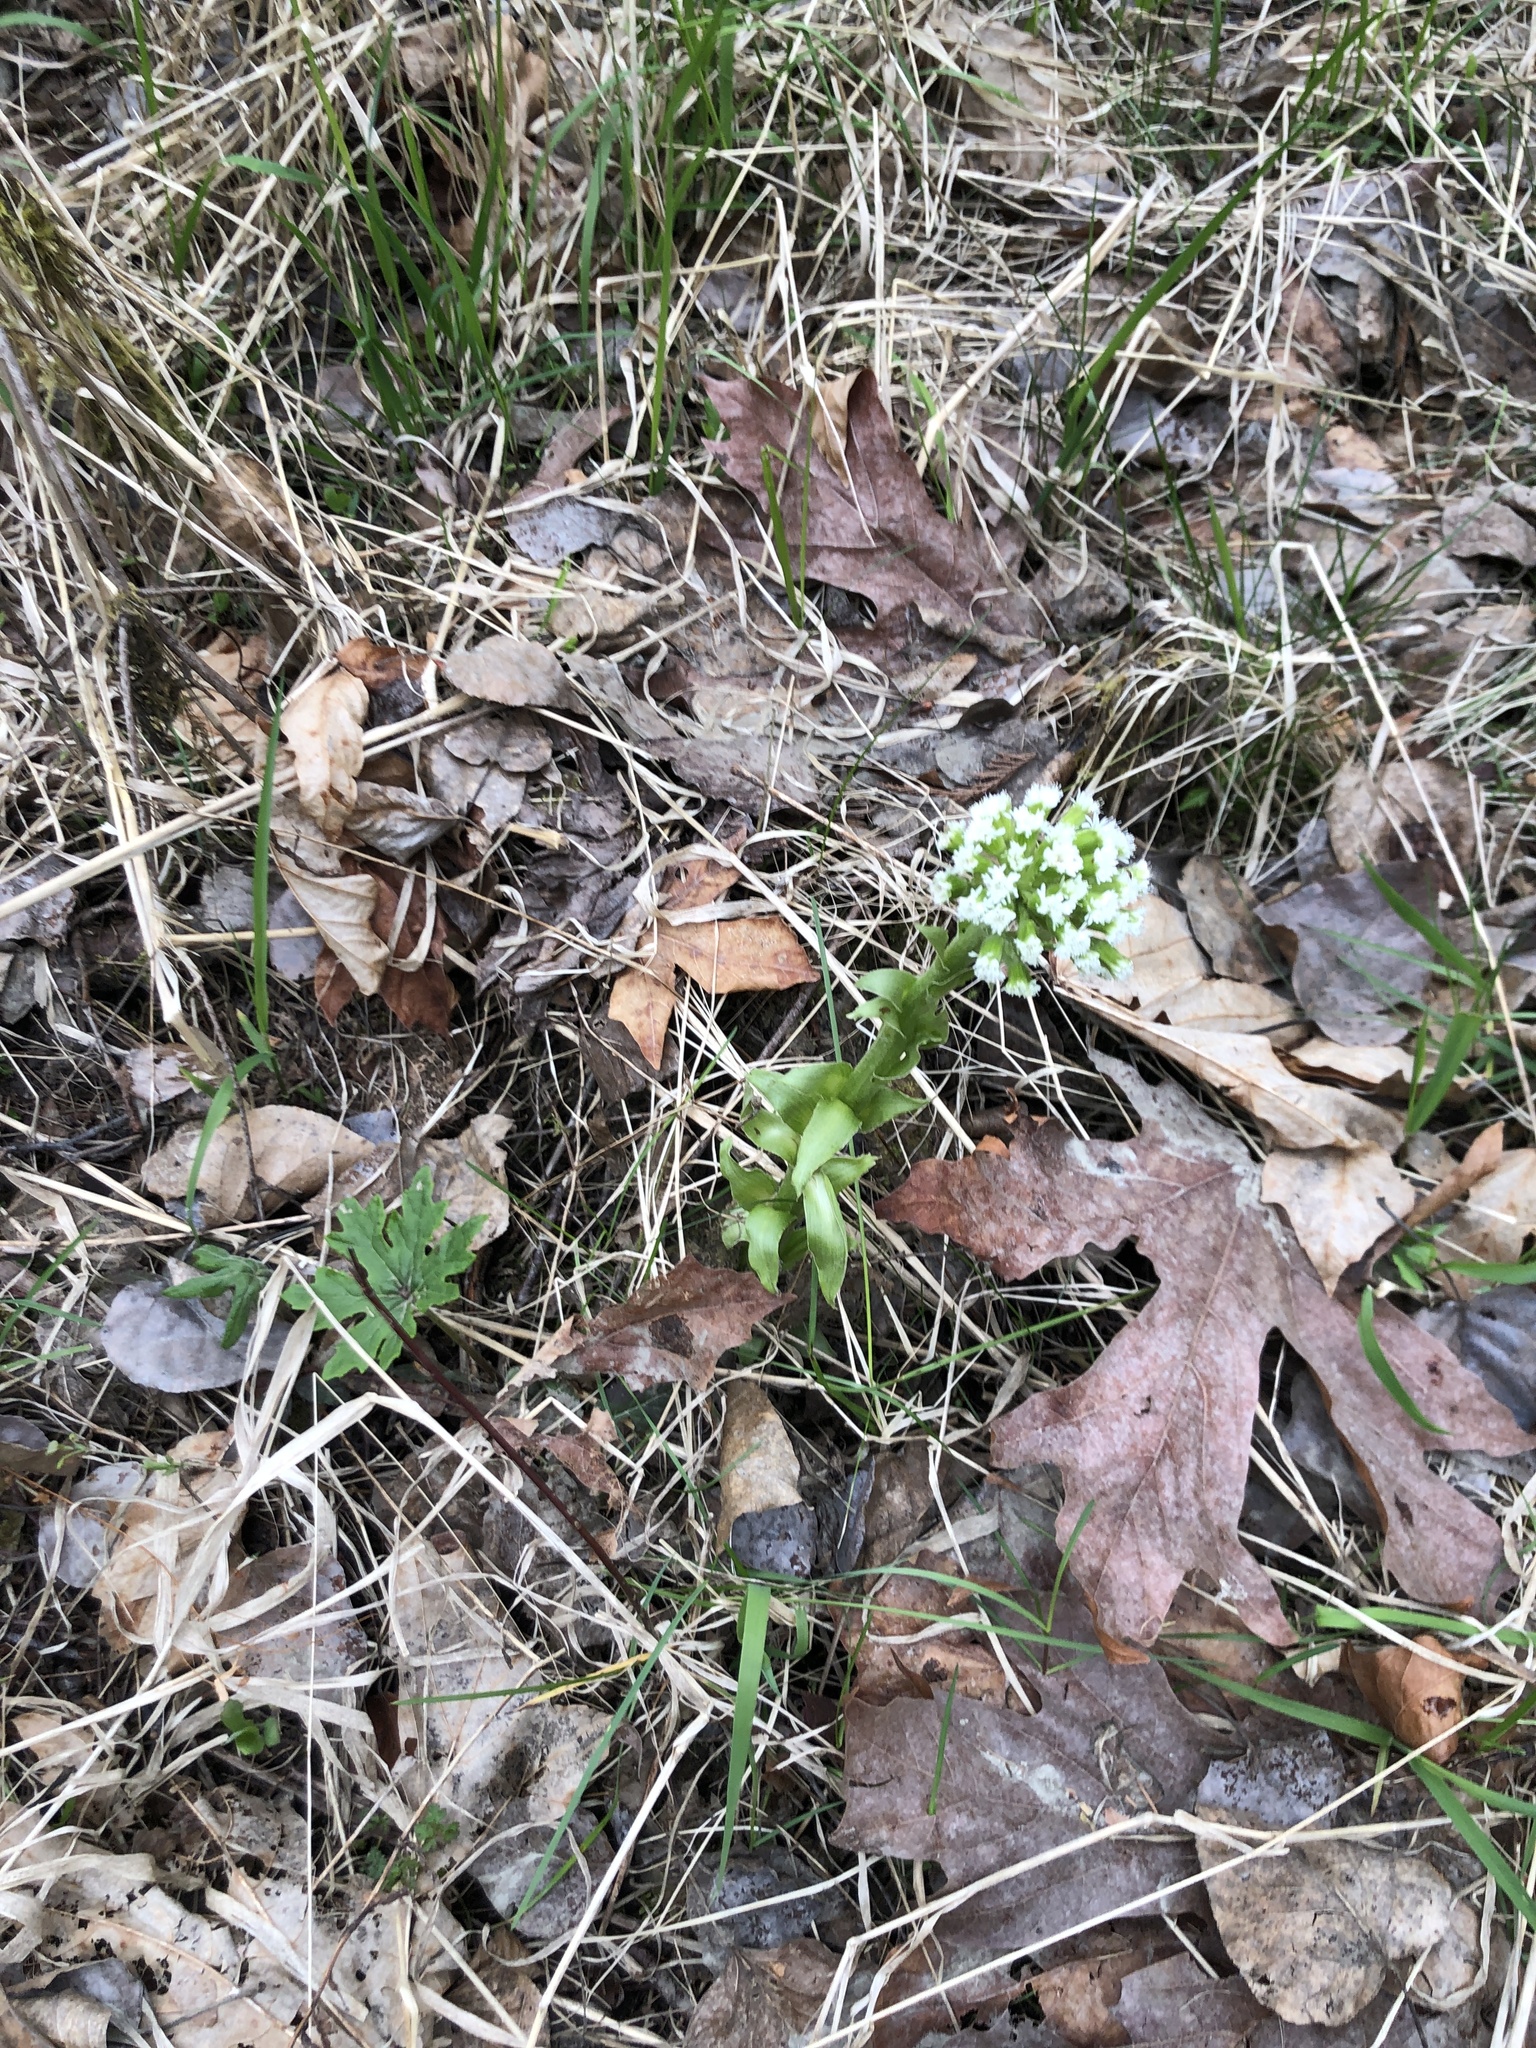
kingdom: Plantae
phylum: Tracheophyta
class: Magnoliopsida
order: Asterales
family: Asteraceae
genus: Petasites
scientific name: Petasites frigidus
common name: Arctic butterbur
